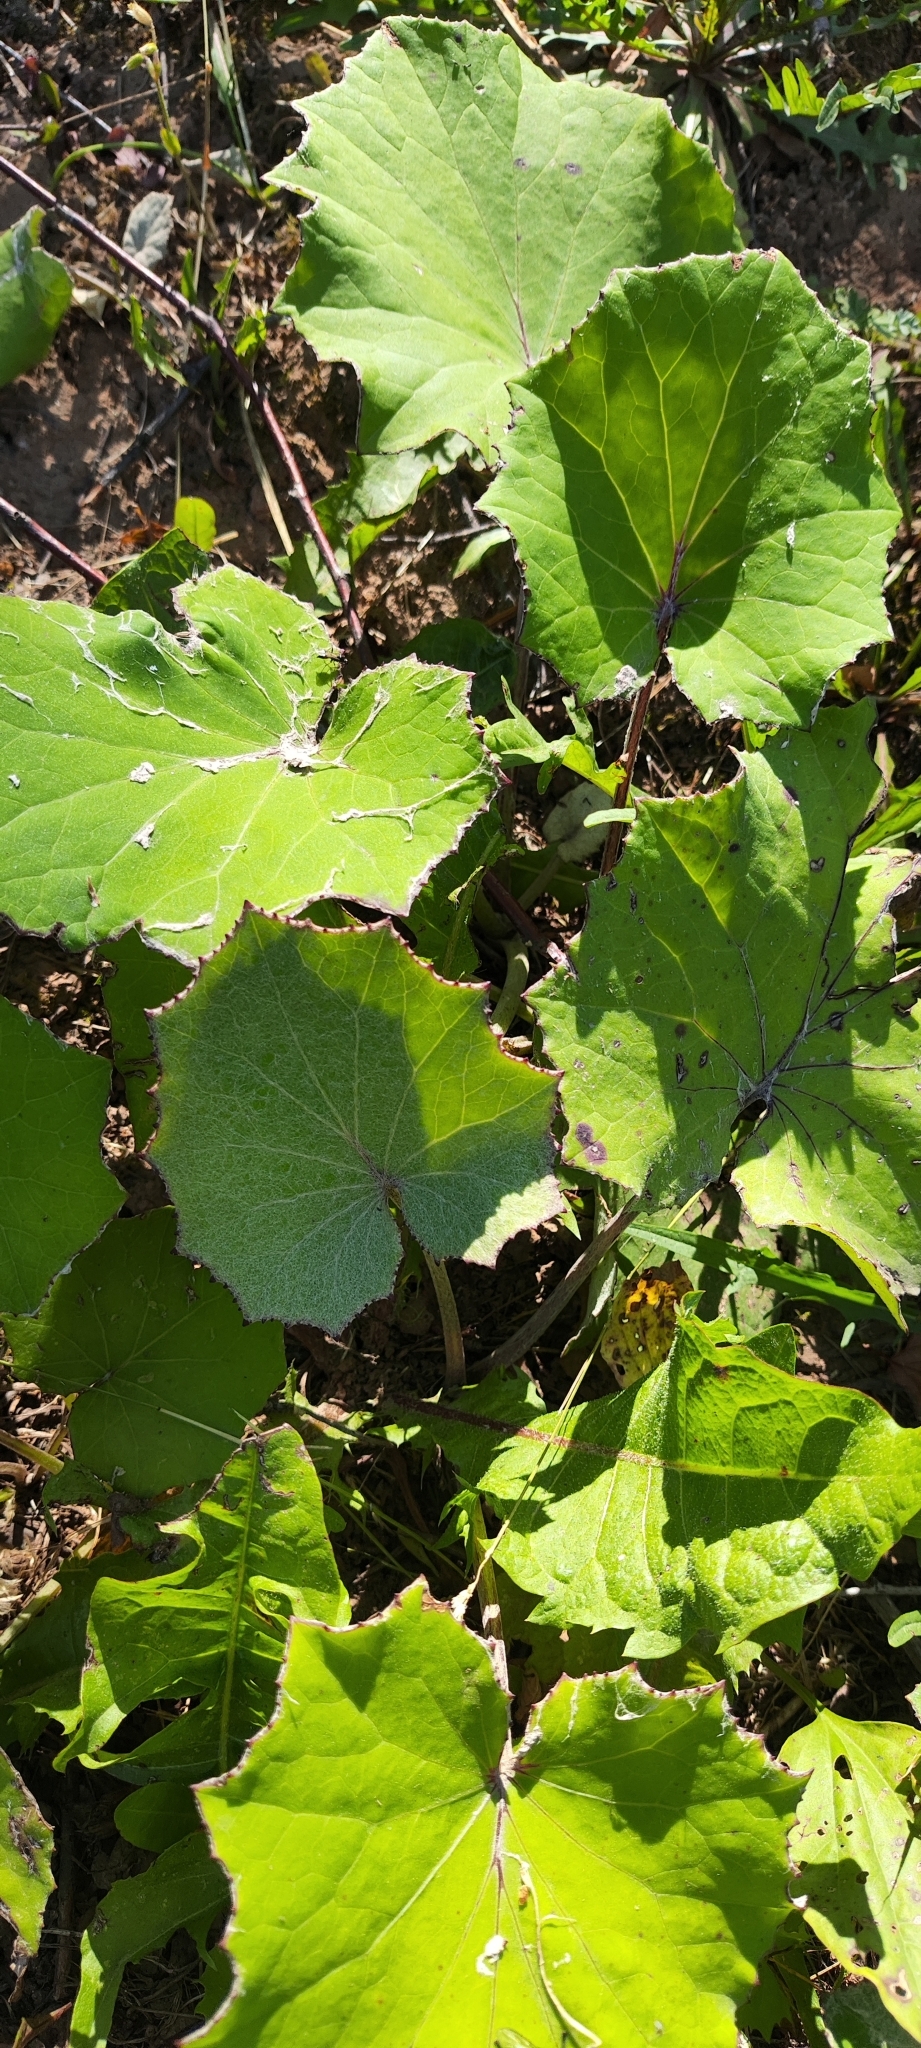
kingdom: Plantae
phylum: Tracheophyta
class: Magnoliopsida
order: Asterales
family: Asteraceae
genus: Tussilago
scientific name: Tussilago farfara
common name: Coltsfoot
